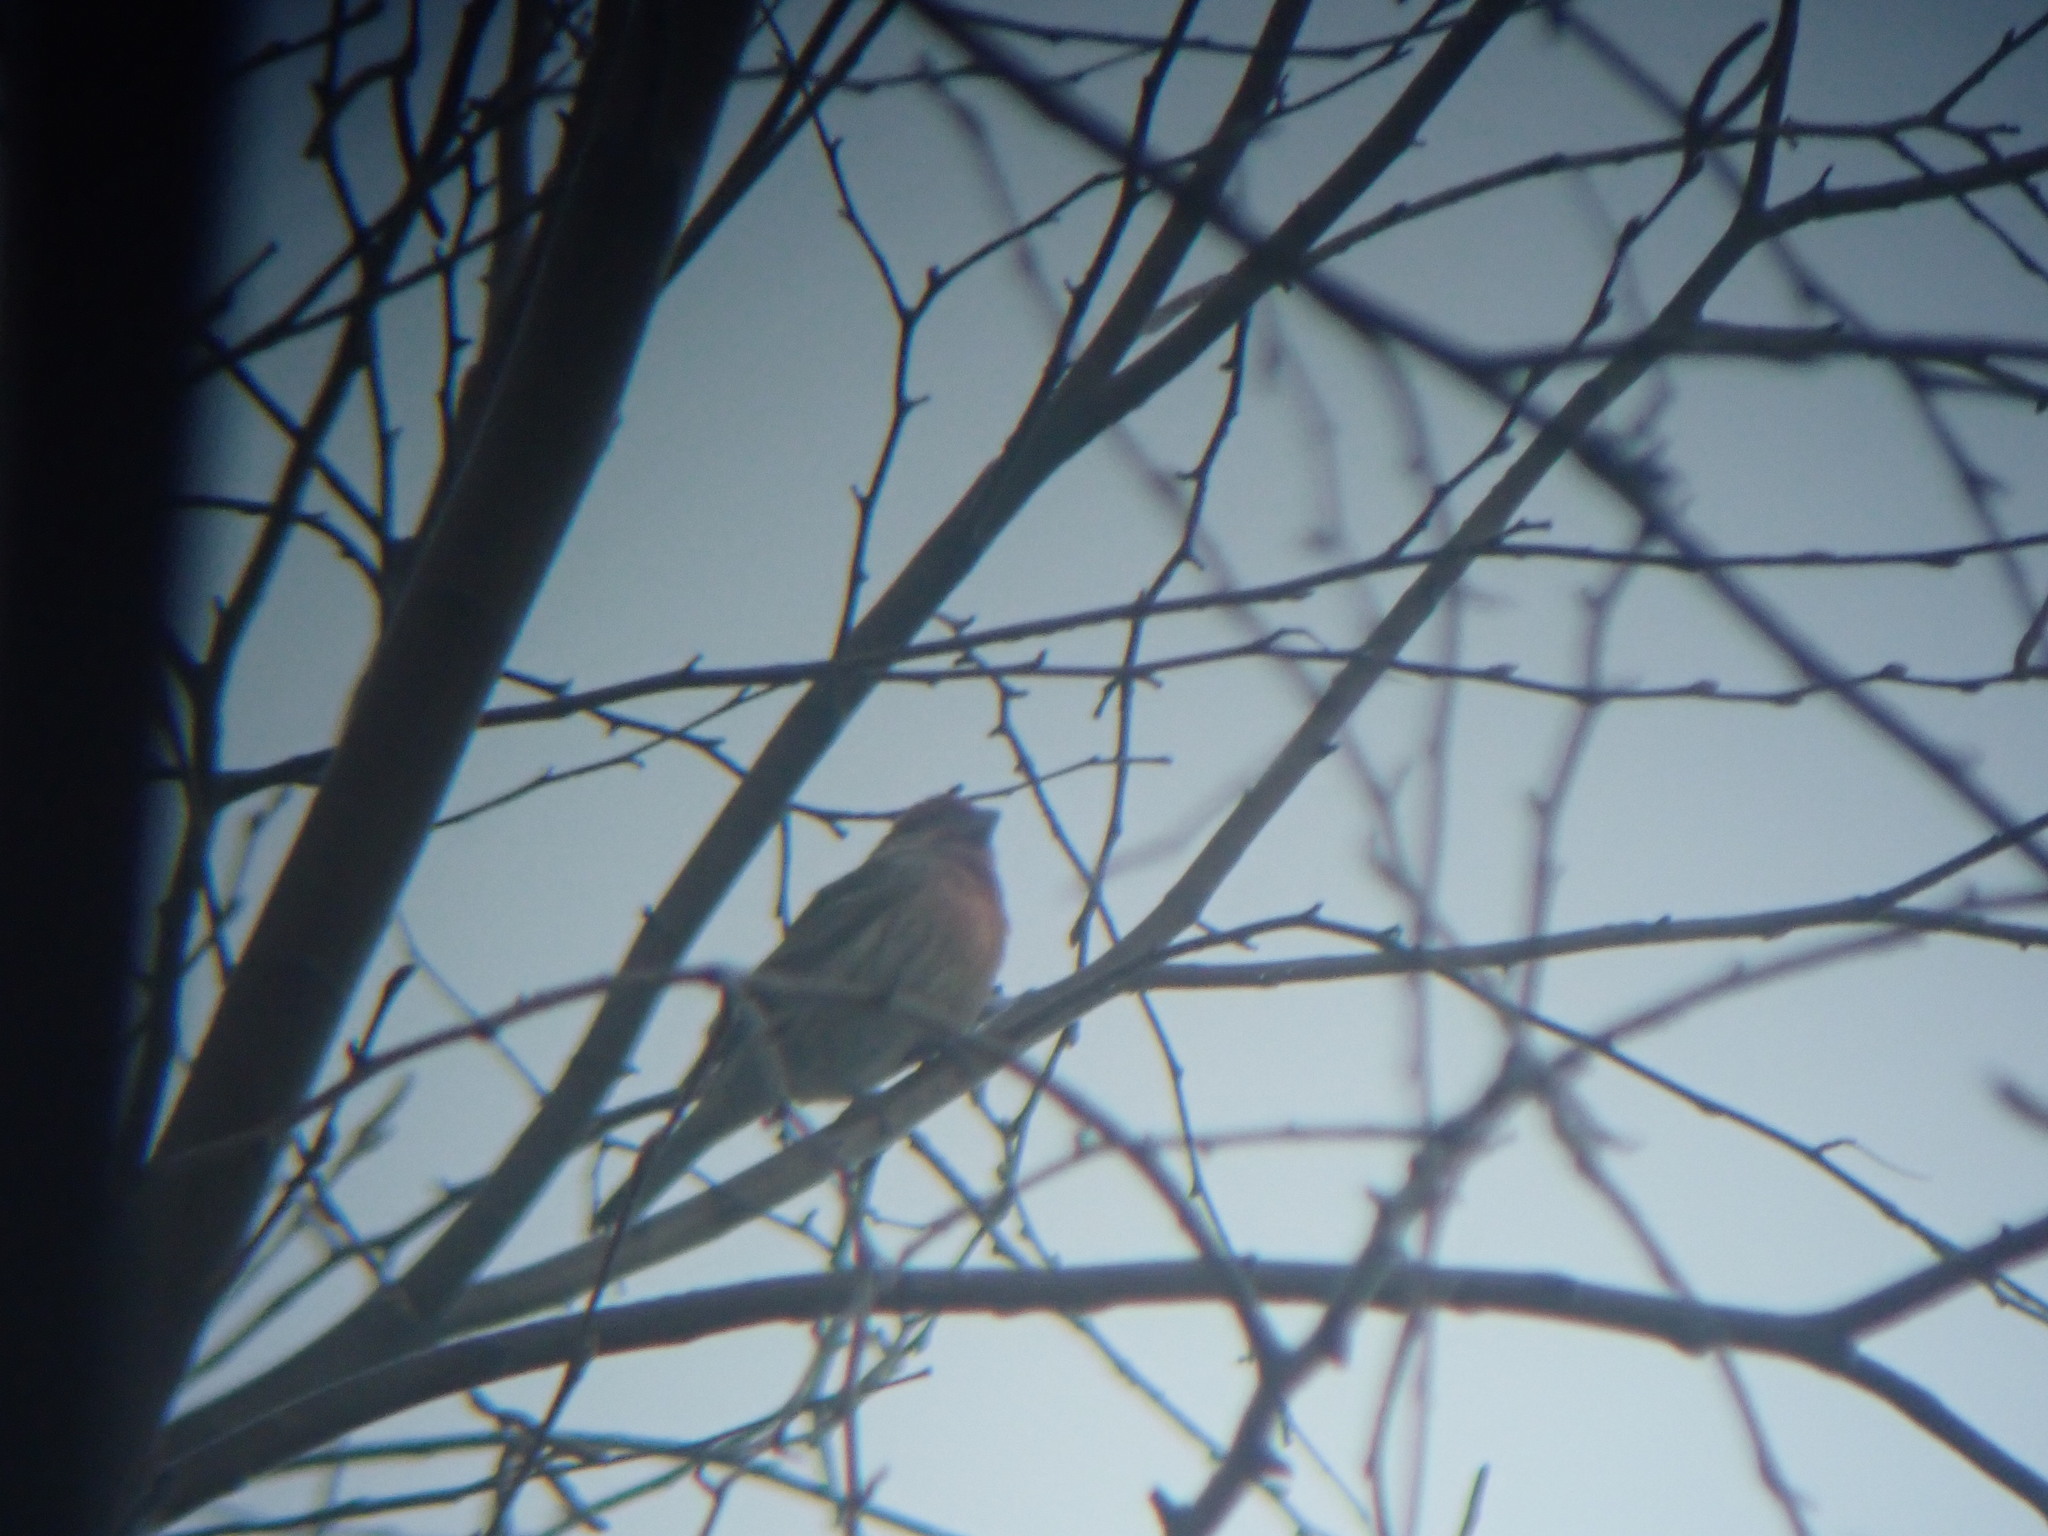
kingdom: Animalia
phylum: Chordata
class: Aves
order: Passeriformes
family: Fringillidae
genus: Haemorhous
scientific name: Haemorhous mexicanus
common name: House finch
